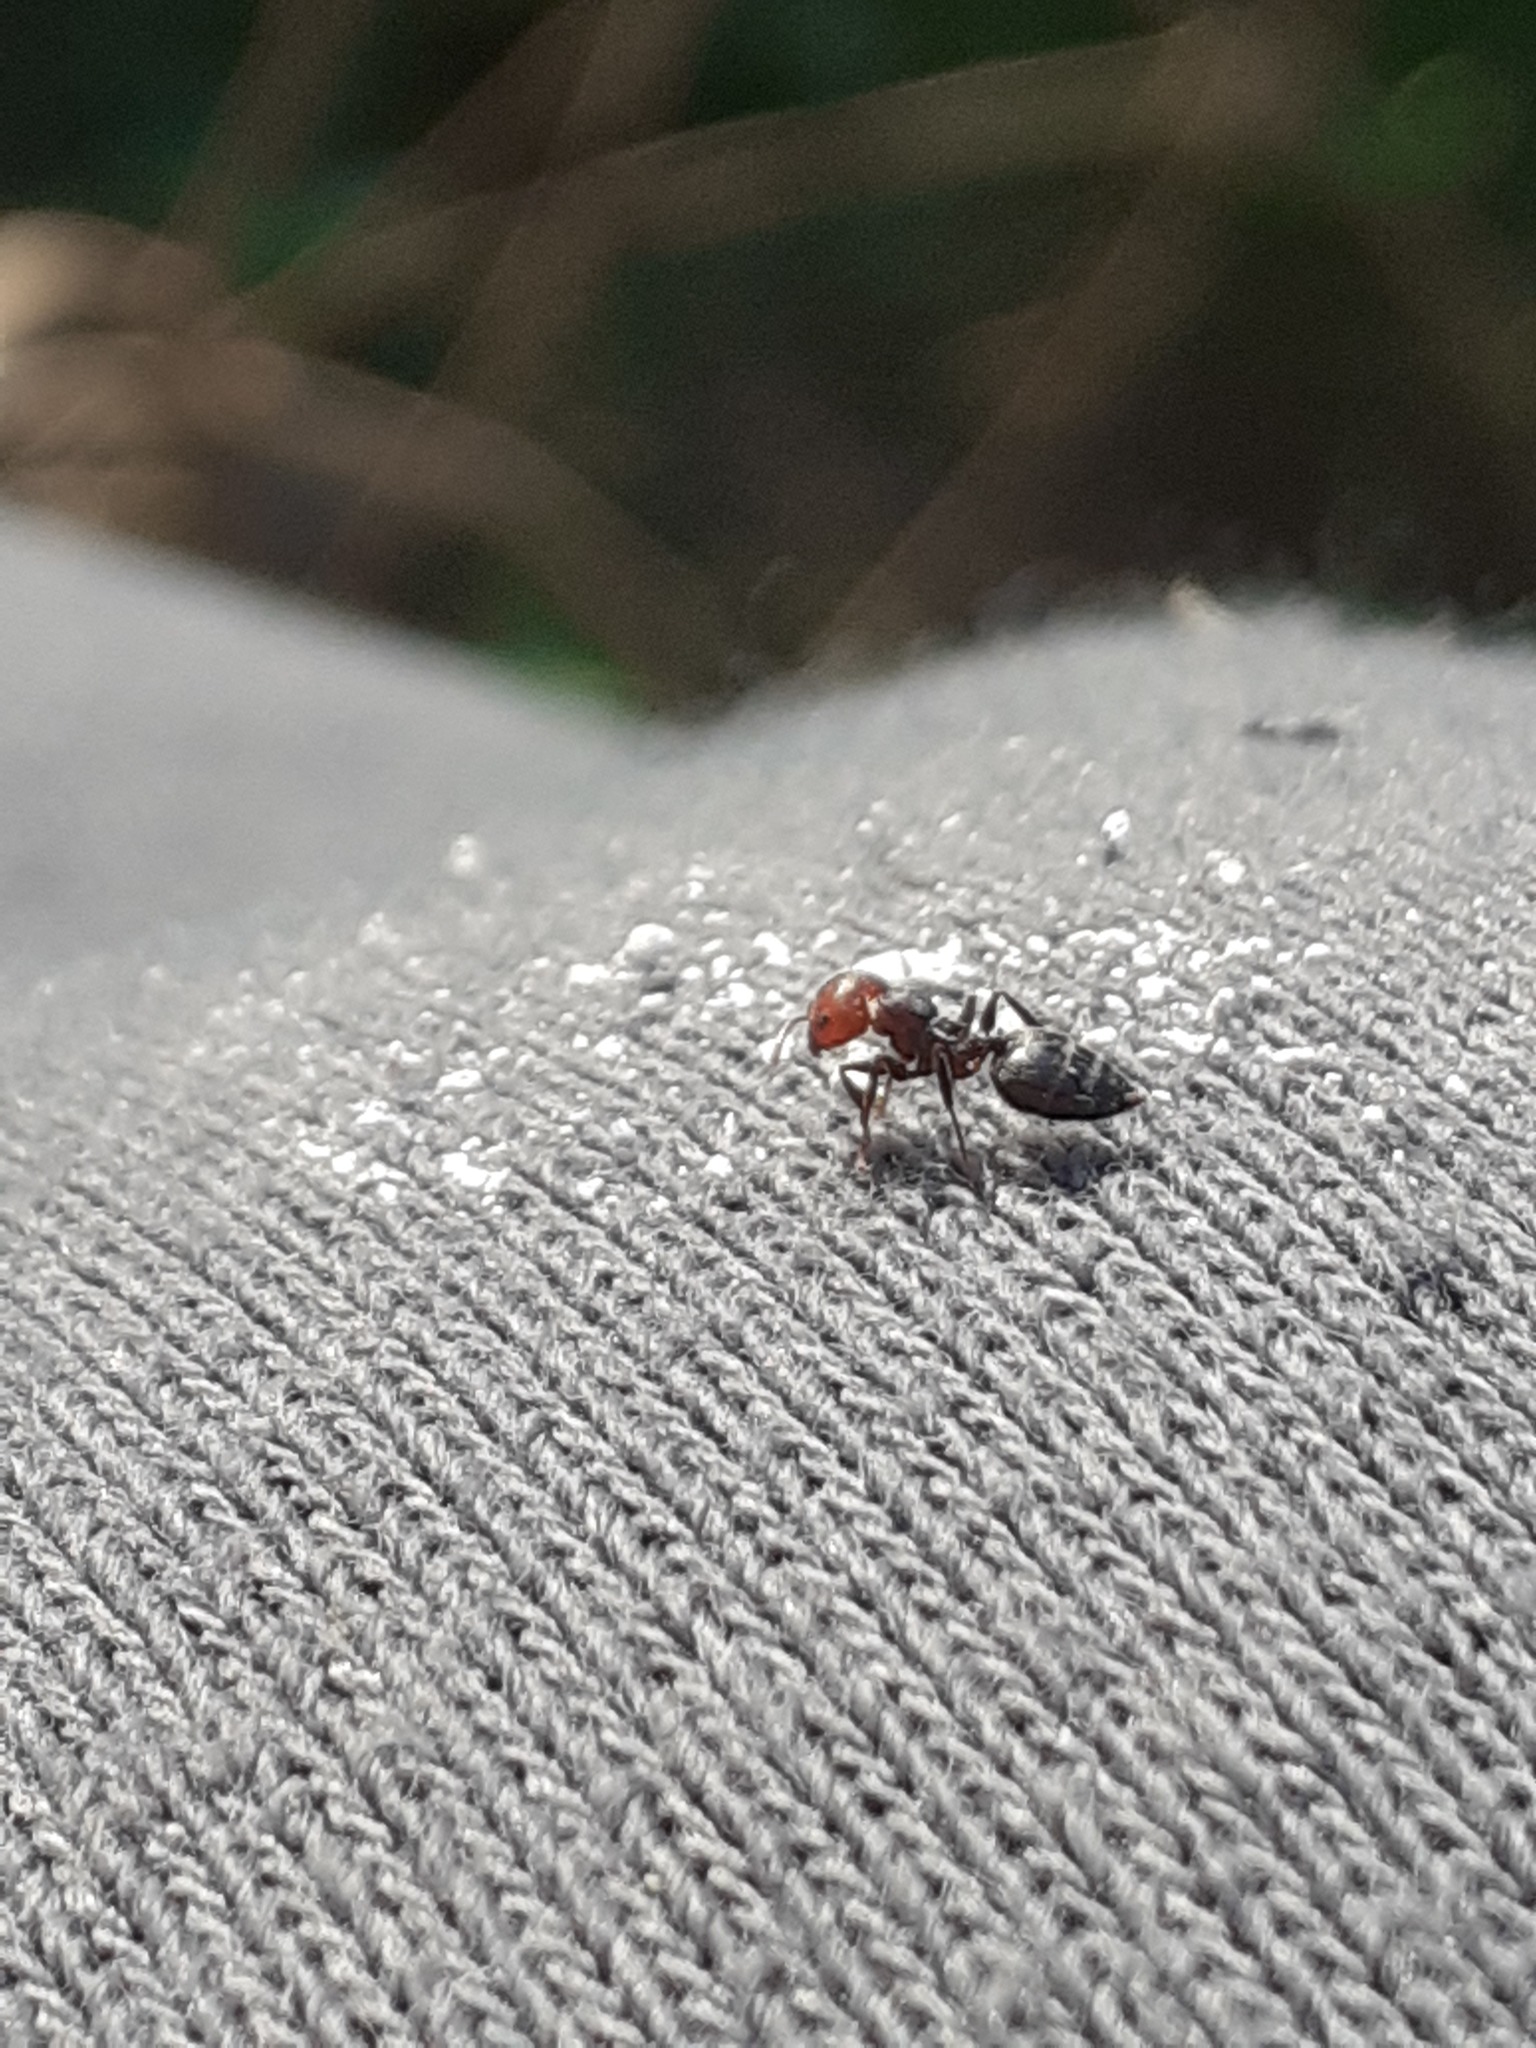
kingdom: Animalia
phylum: Arthropoda
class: Insecta
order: Hymenoptera
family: Formicidae
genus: Crematogaster
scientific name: Crematogaster scutellaris
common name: Fourmi du liège
